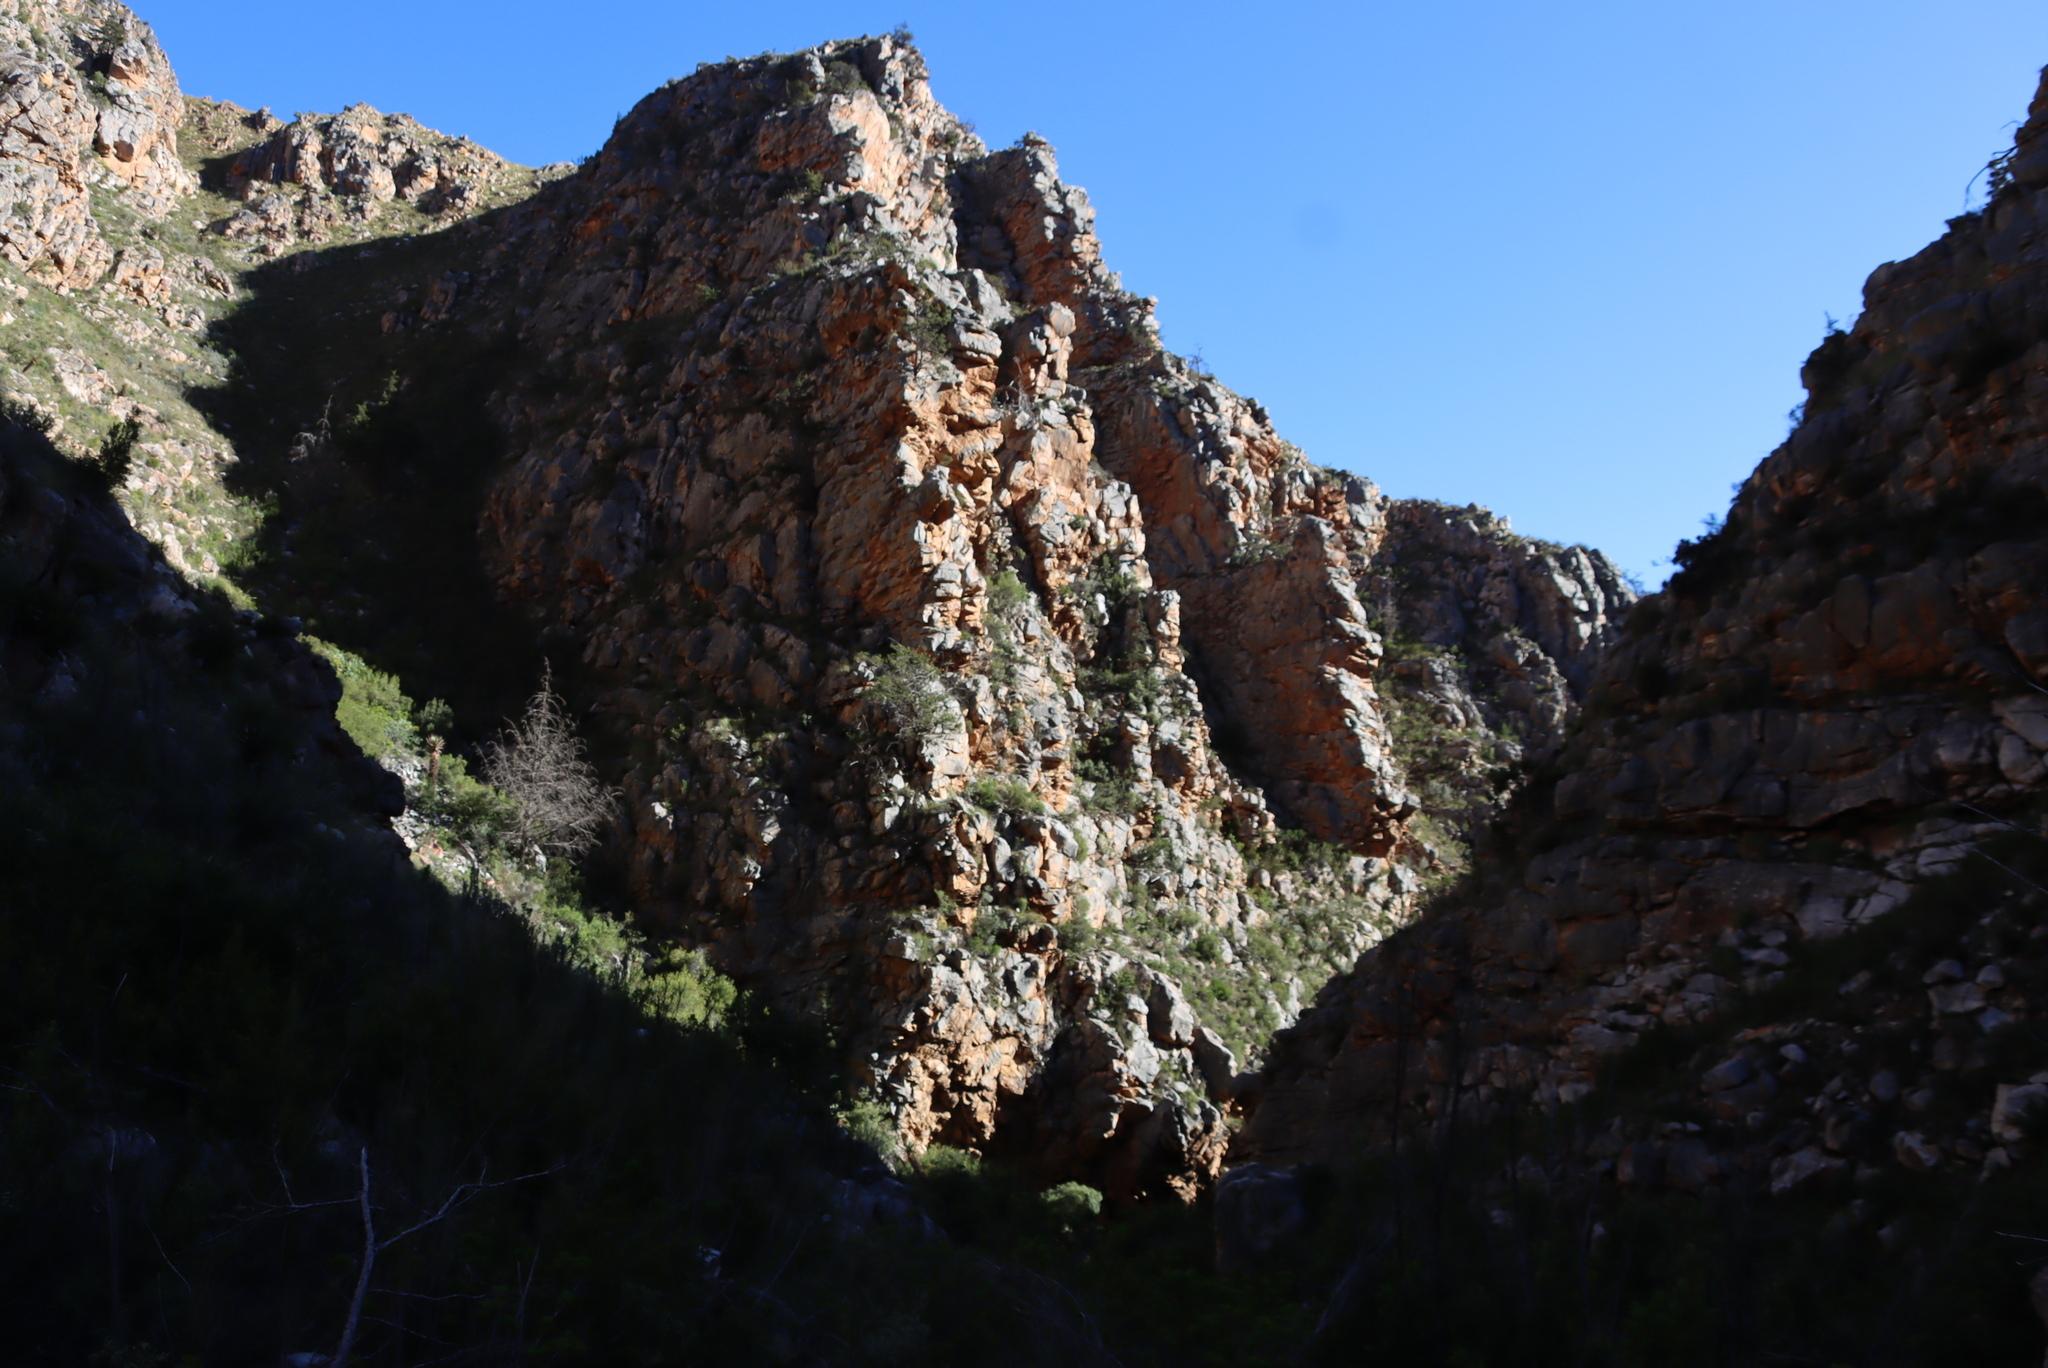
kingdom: Plantae
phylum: Tracheophyta
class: Pinopsida
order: Pinales
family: Cupressaceae
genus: Widdringtonia
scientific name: Widdringtonia schwarzii
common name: Baviaans cedar
